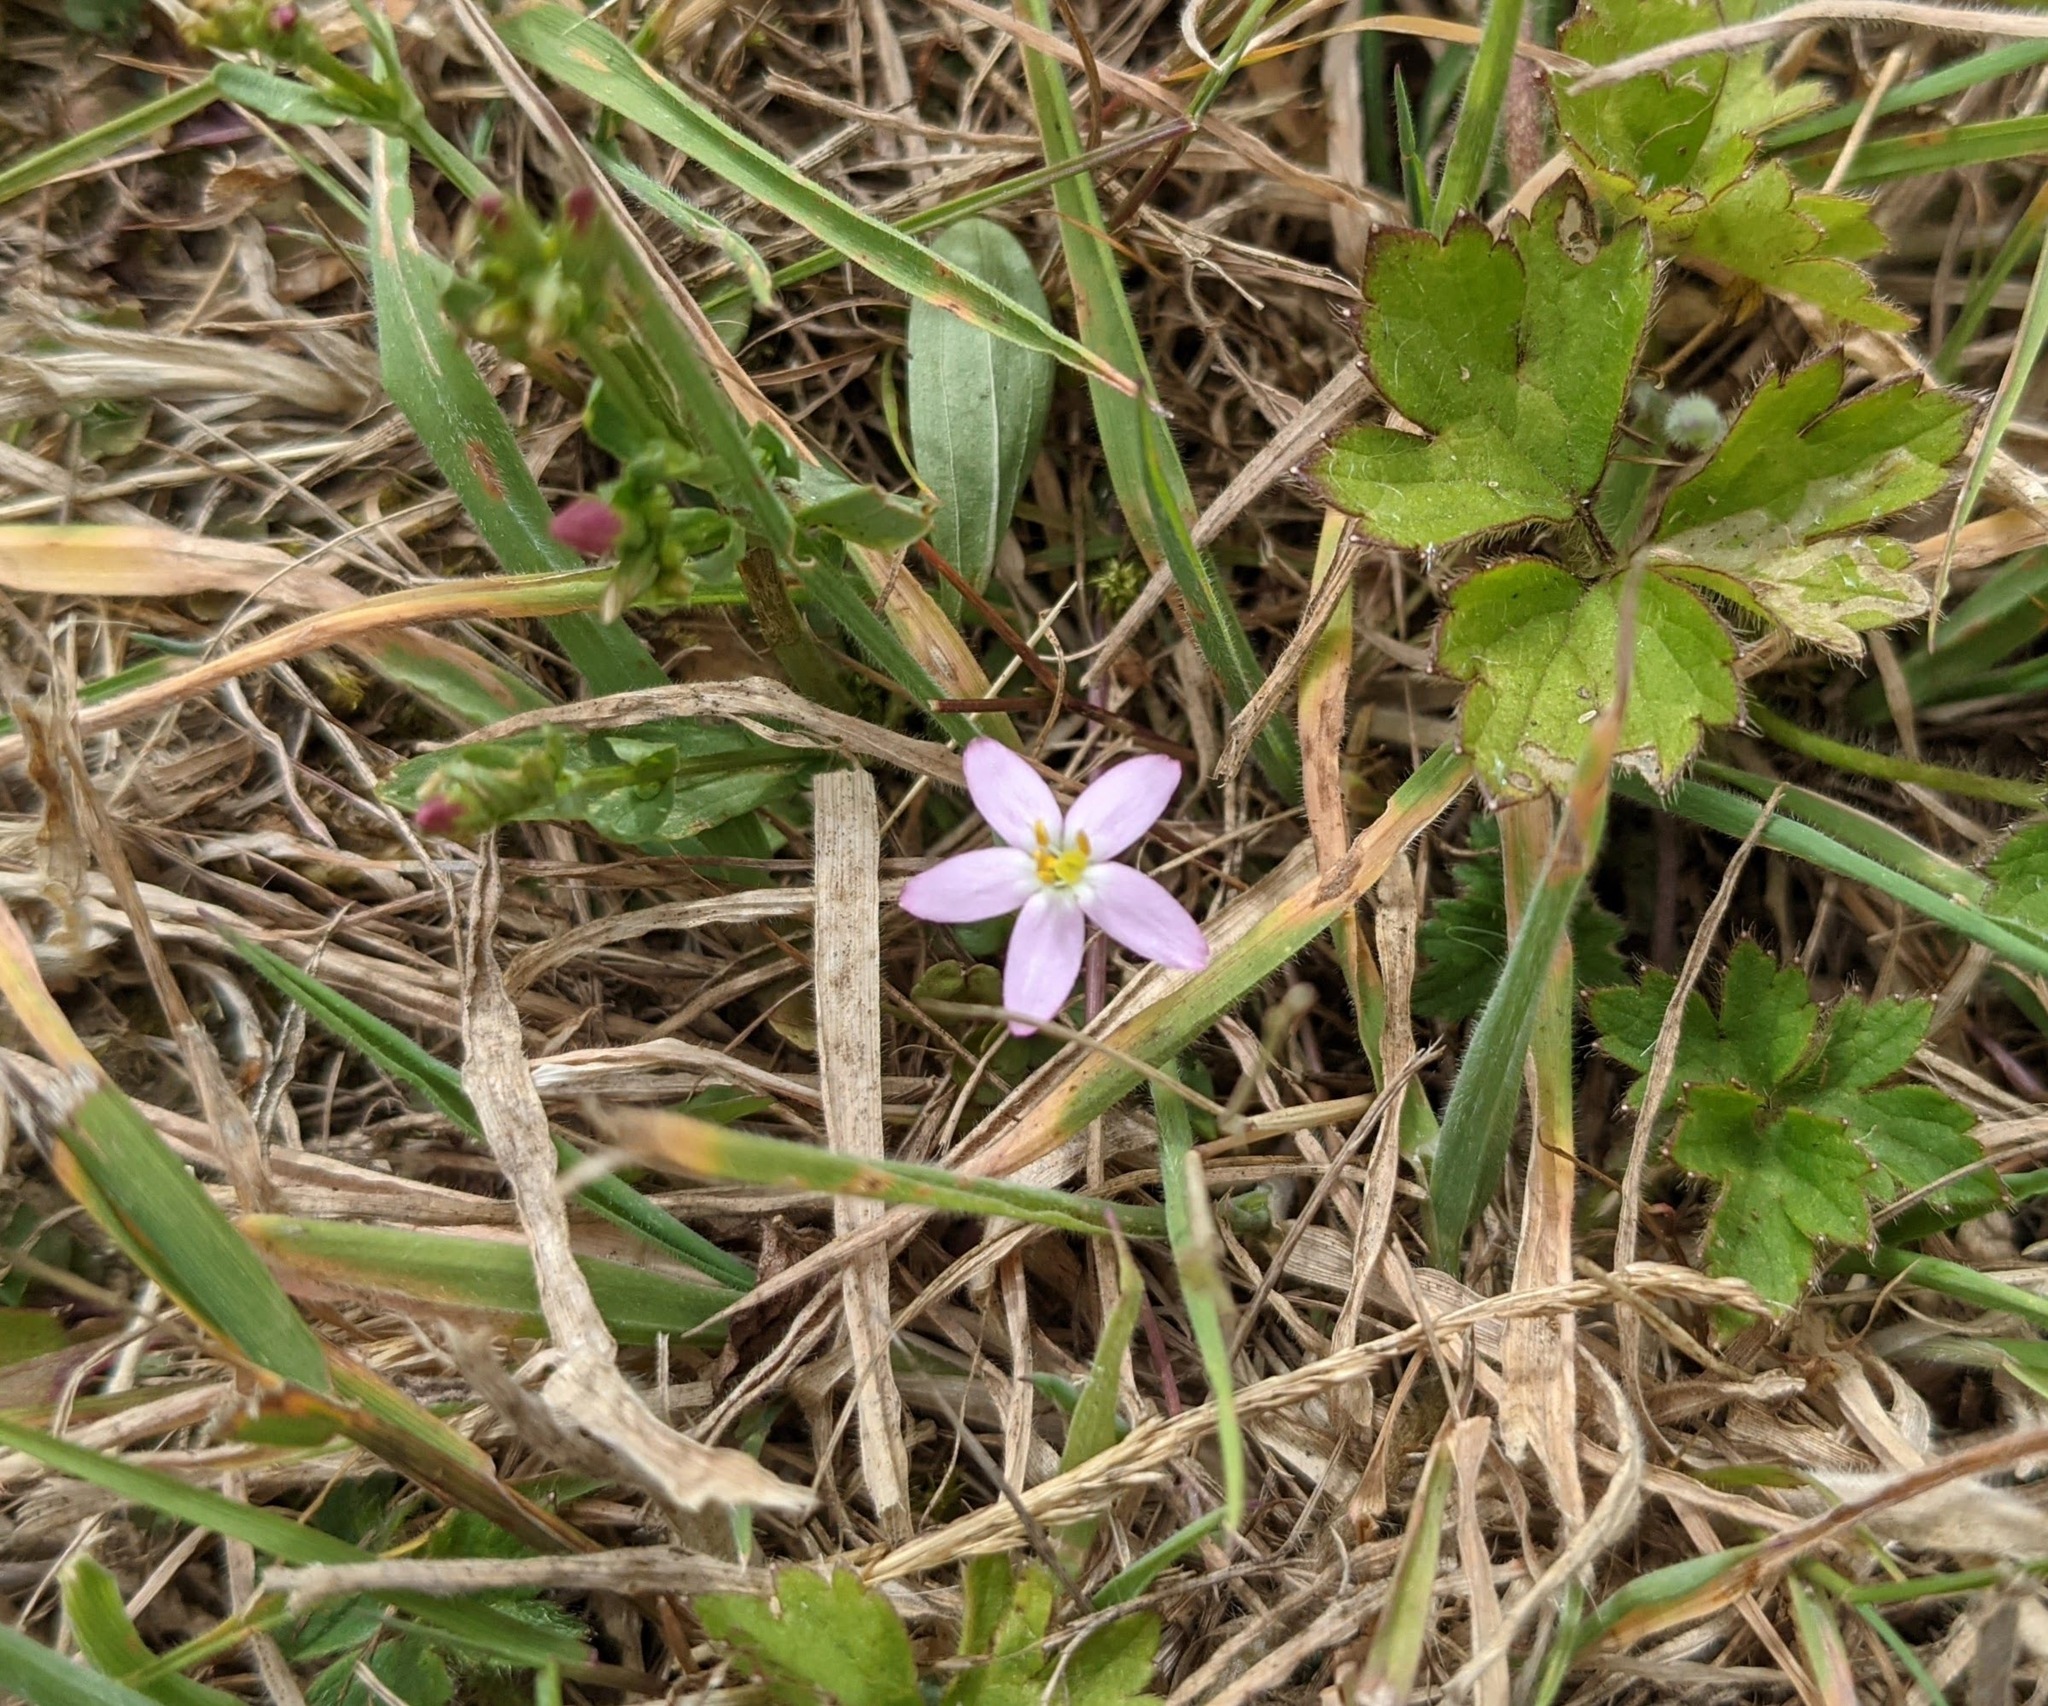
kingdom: Plantae
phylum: Tracheophyta
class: Magnoliopsida
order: Gentianales
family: Gentianaceae
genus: Centaurium
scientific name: Centaurium erythraea
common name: Common centaury
